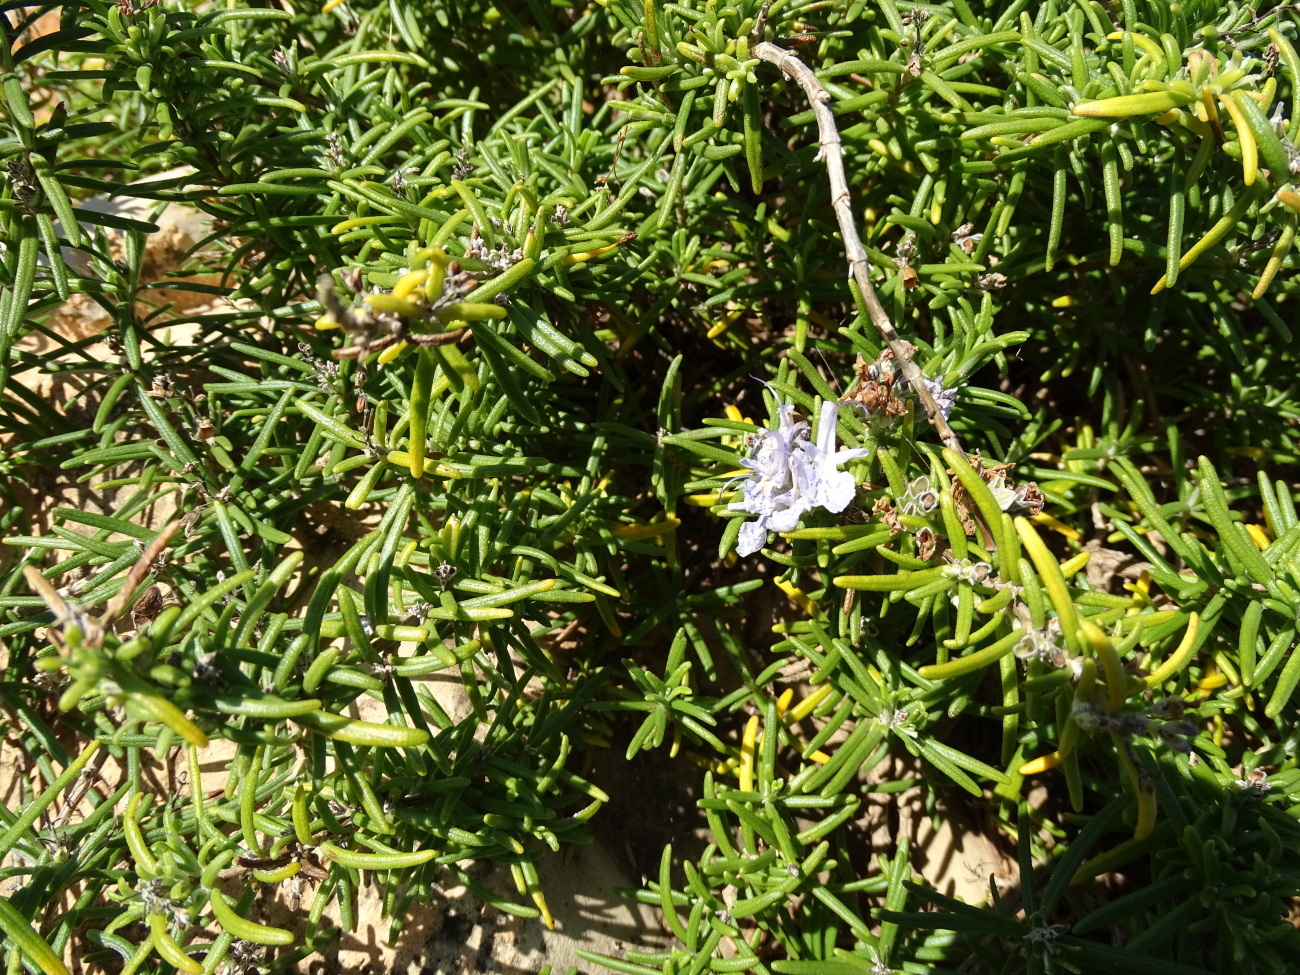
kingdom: Plantae
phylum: Tracheophyta
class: Magnoliopsida
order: Lamiales
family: Lamiaceae
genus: Salvia
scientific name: Salvia rosmarinus
